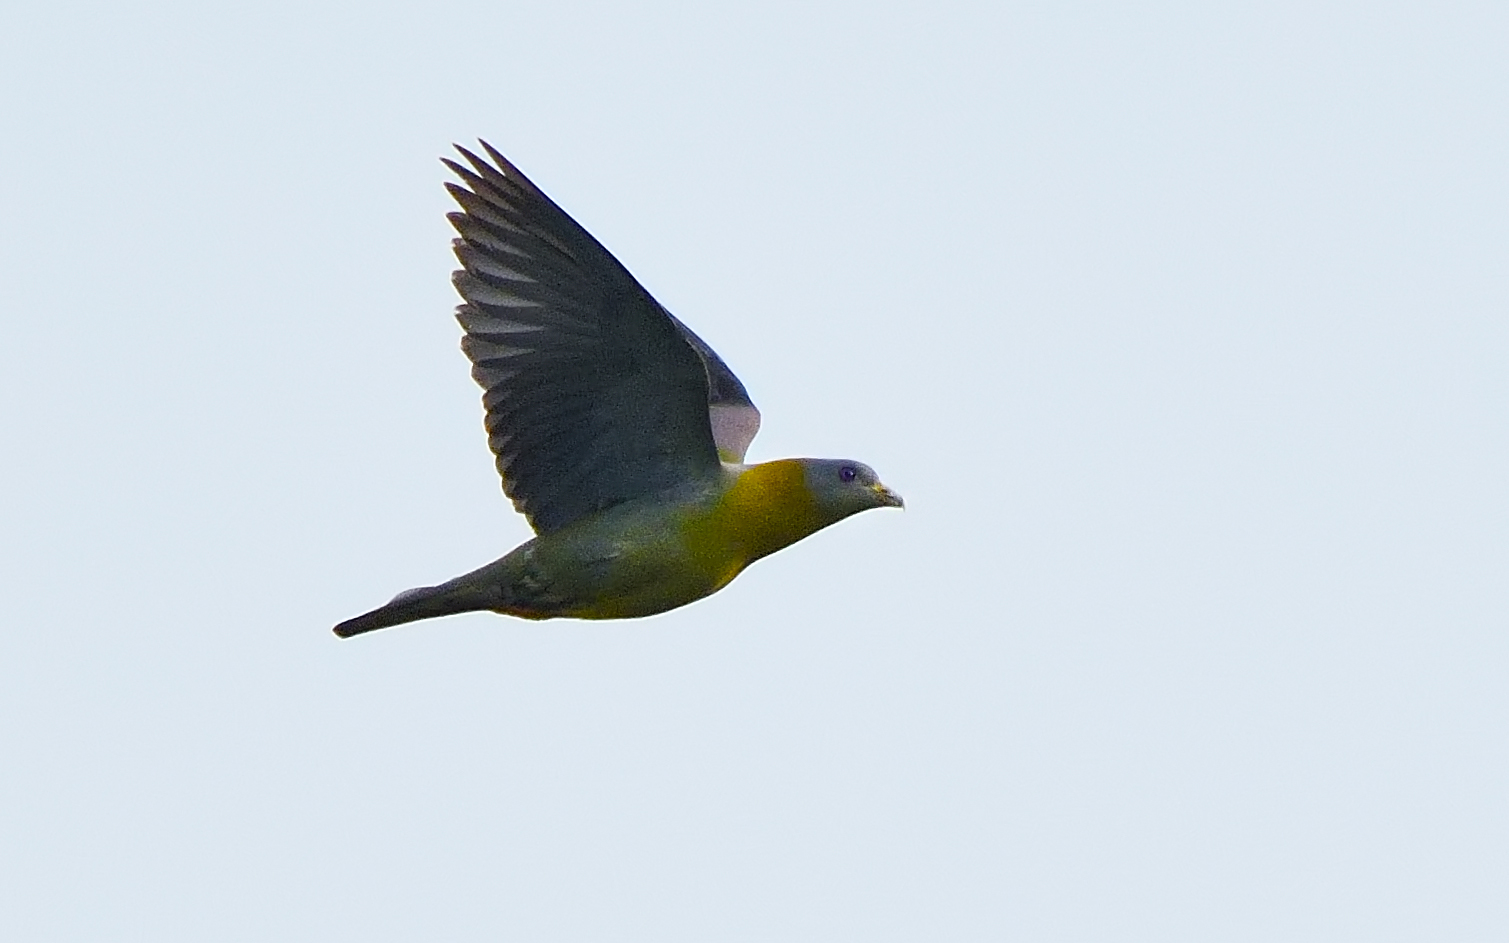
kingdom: Animalia
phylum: Chordata
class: Aves
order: Columbiformes
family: Columbidae
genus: Treron
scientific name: Treron phoenicopterus
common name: Yellow-footed green pigeon
